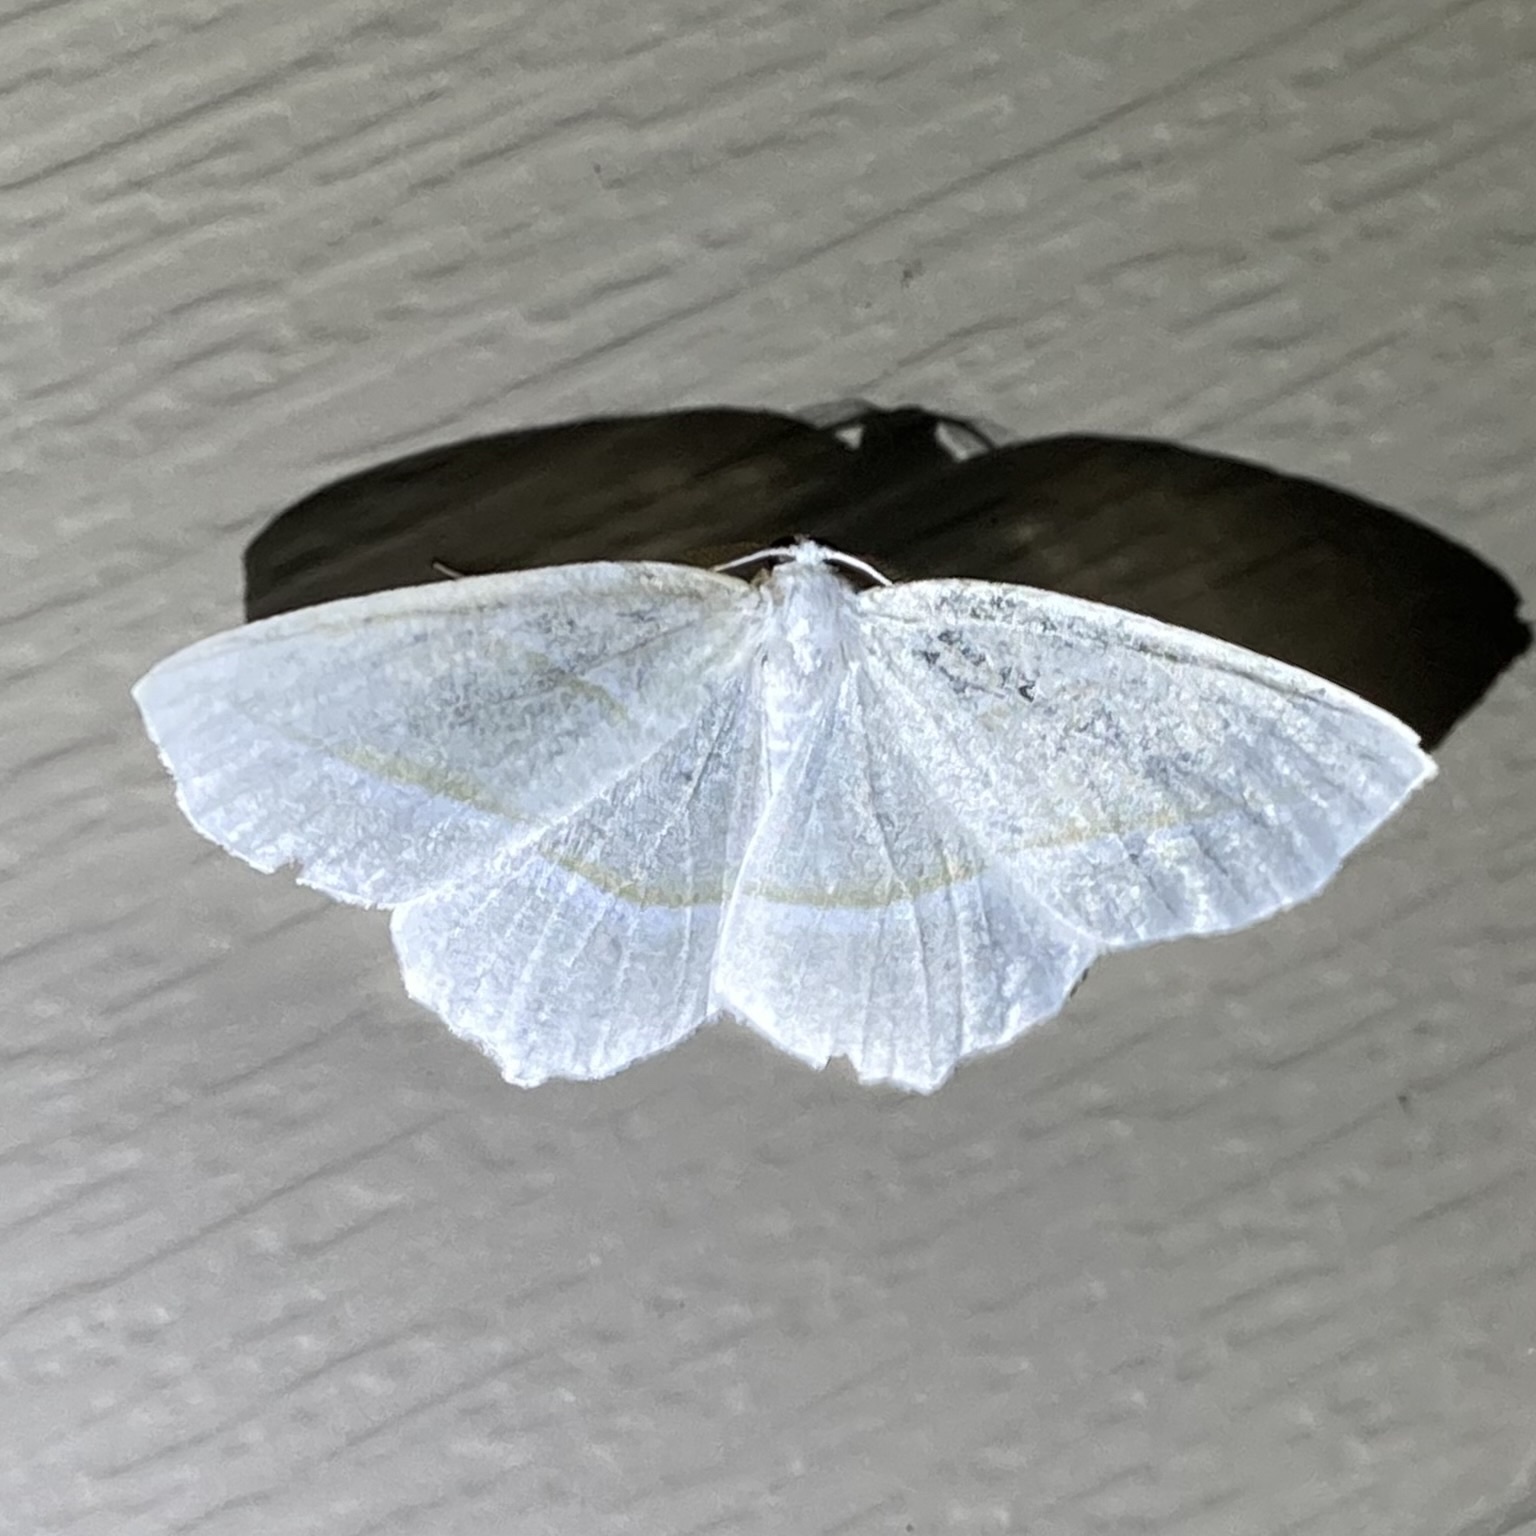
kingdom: Animalia
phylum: Arthropoda
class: Insecta
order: Lepidoptera
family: Geometridae
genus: Campaea
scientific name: Campaea perlata
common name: Fringed looper
